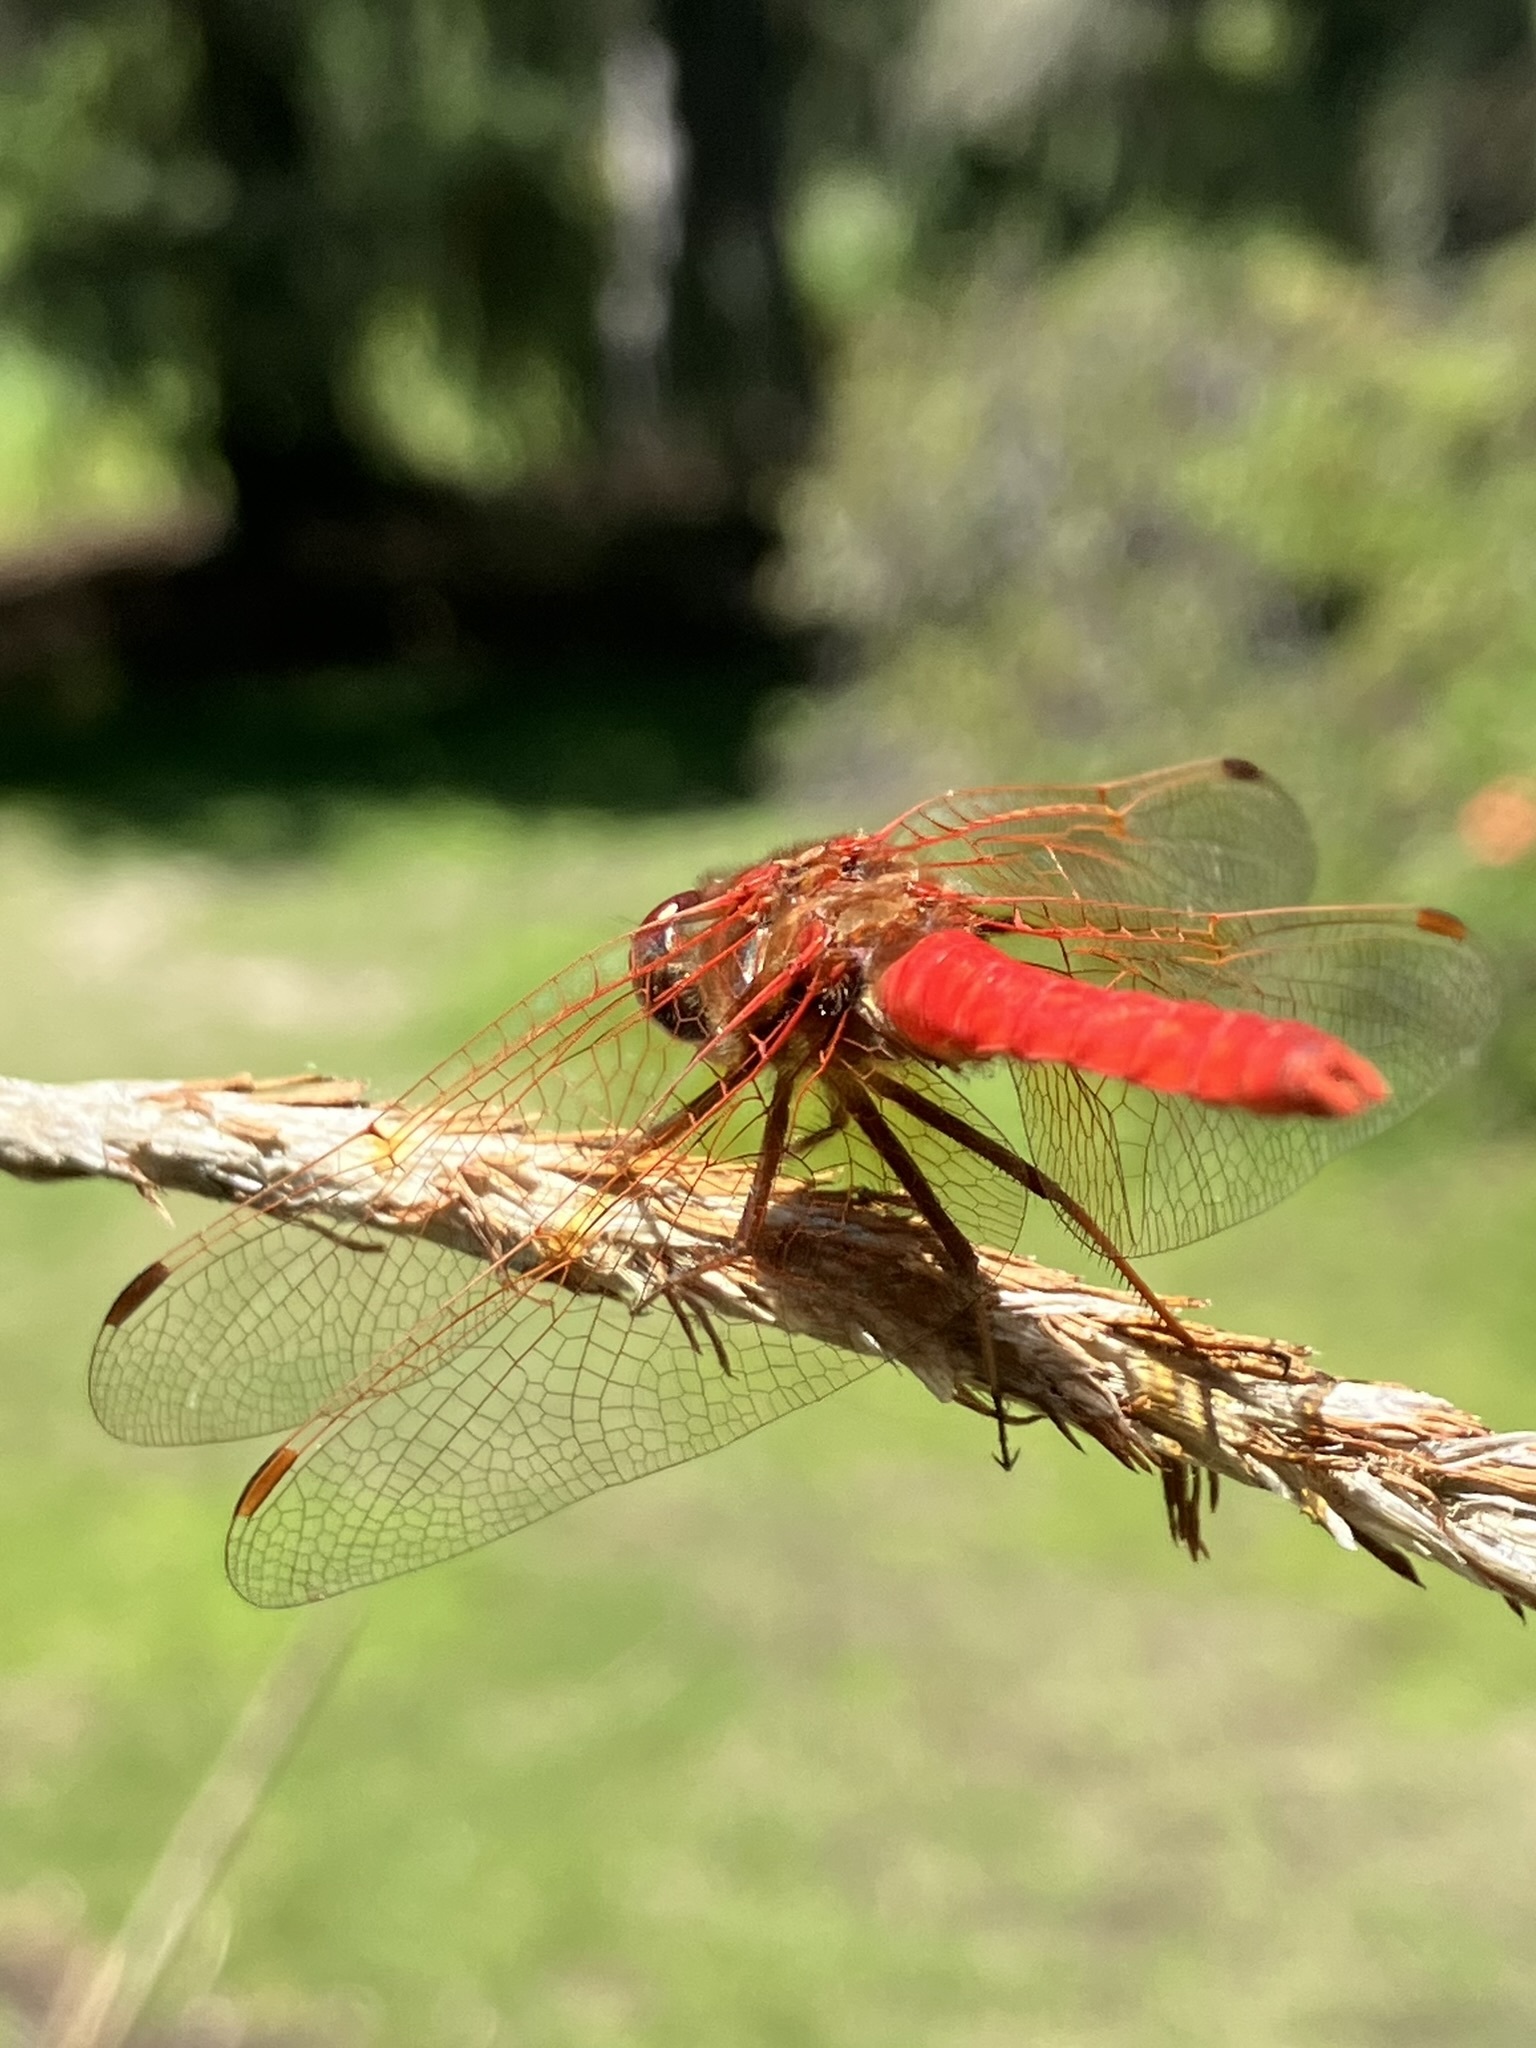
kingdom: Animalia
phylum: Arthropoda
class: Insecta
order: Odonata
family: Libellulidae
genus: Sympetrum
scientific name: Sympetrum illotum
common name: Cardinal meadowhawk
